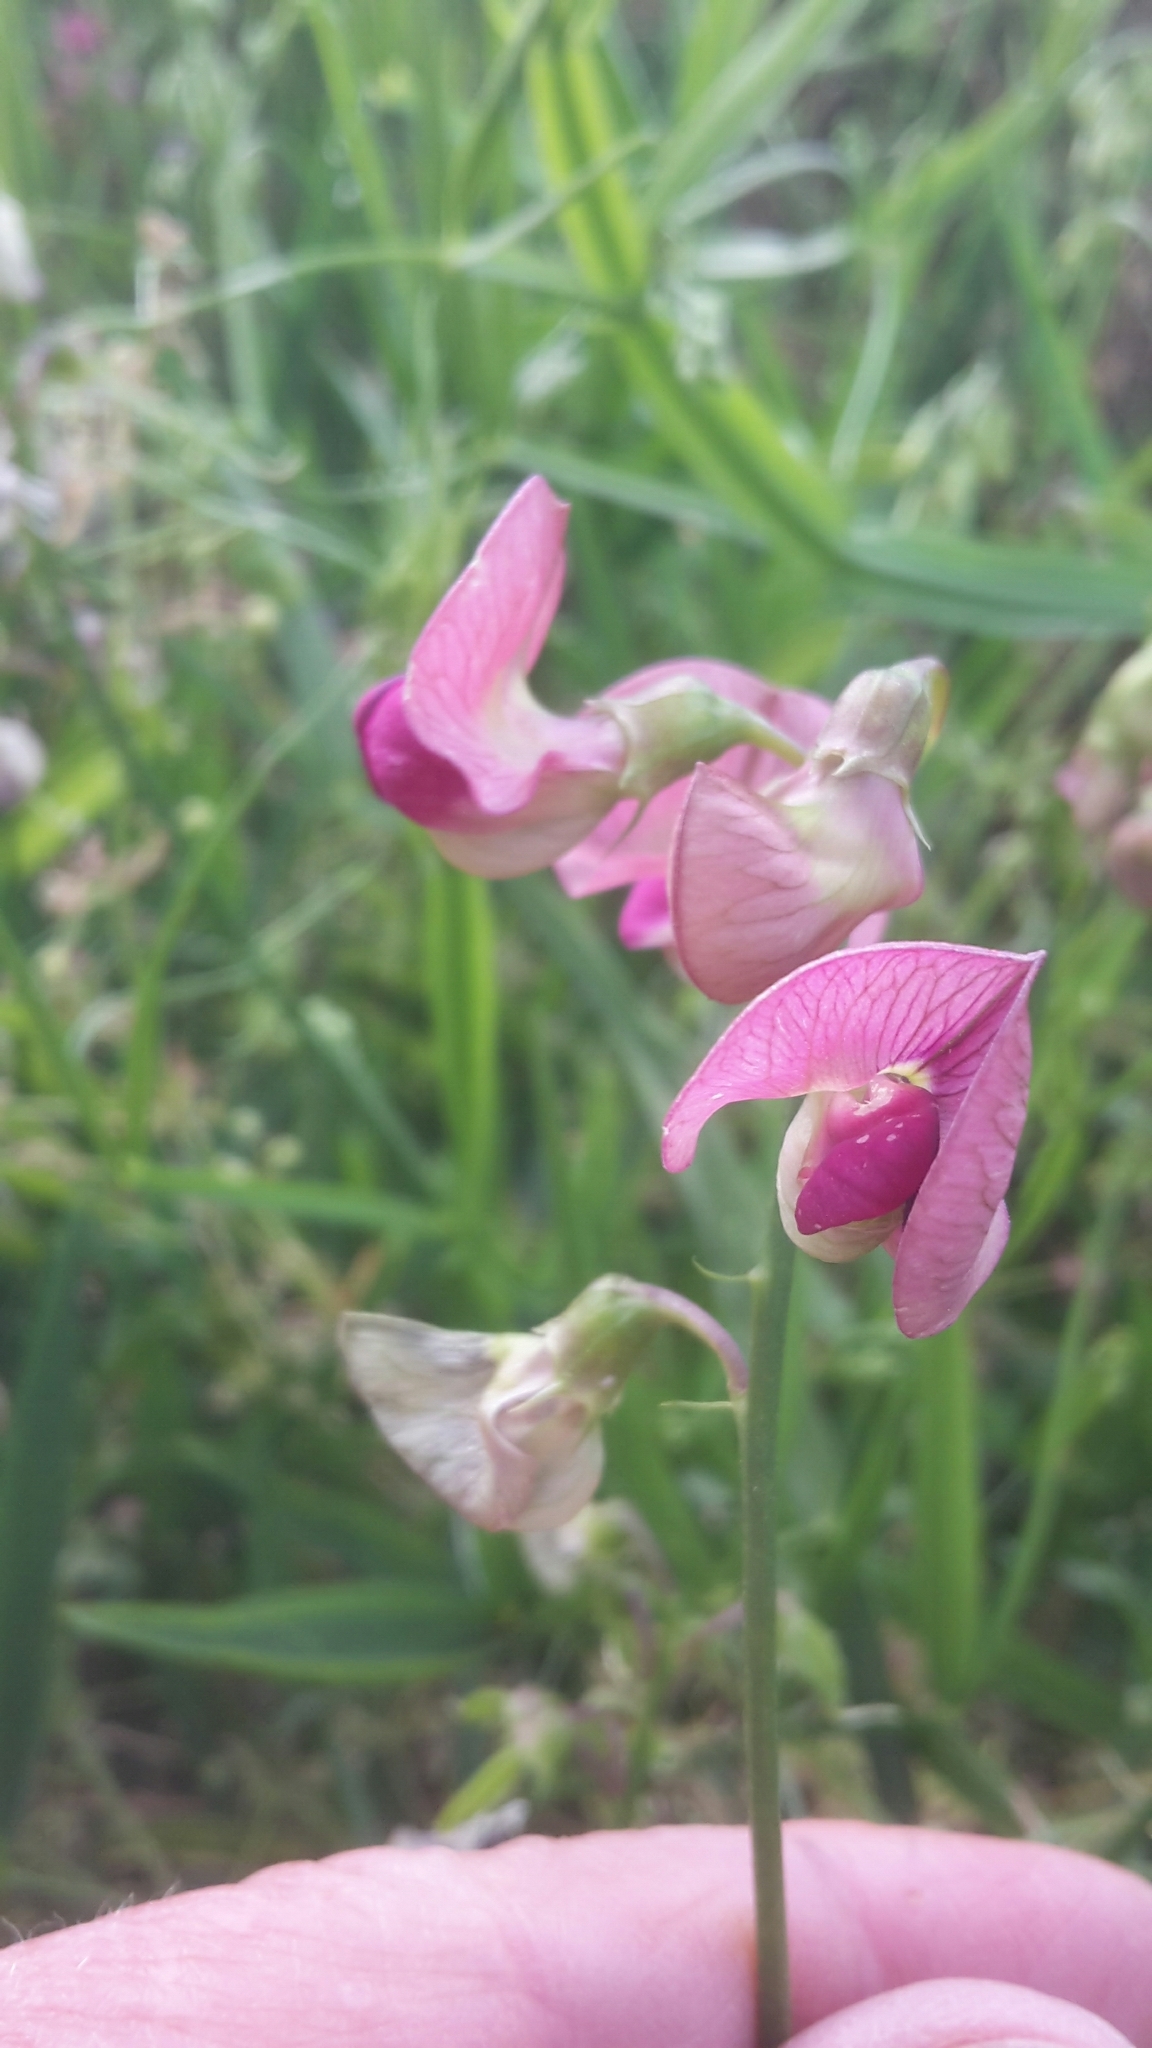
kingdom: Plantae
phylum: Tracheophyta
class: Magnoliopsida
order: Fabales
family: Fabaceae
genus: Lathyrus
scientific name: Lathyrus sylvestris
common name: Flat pea
